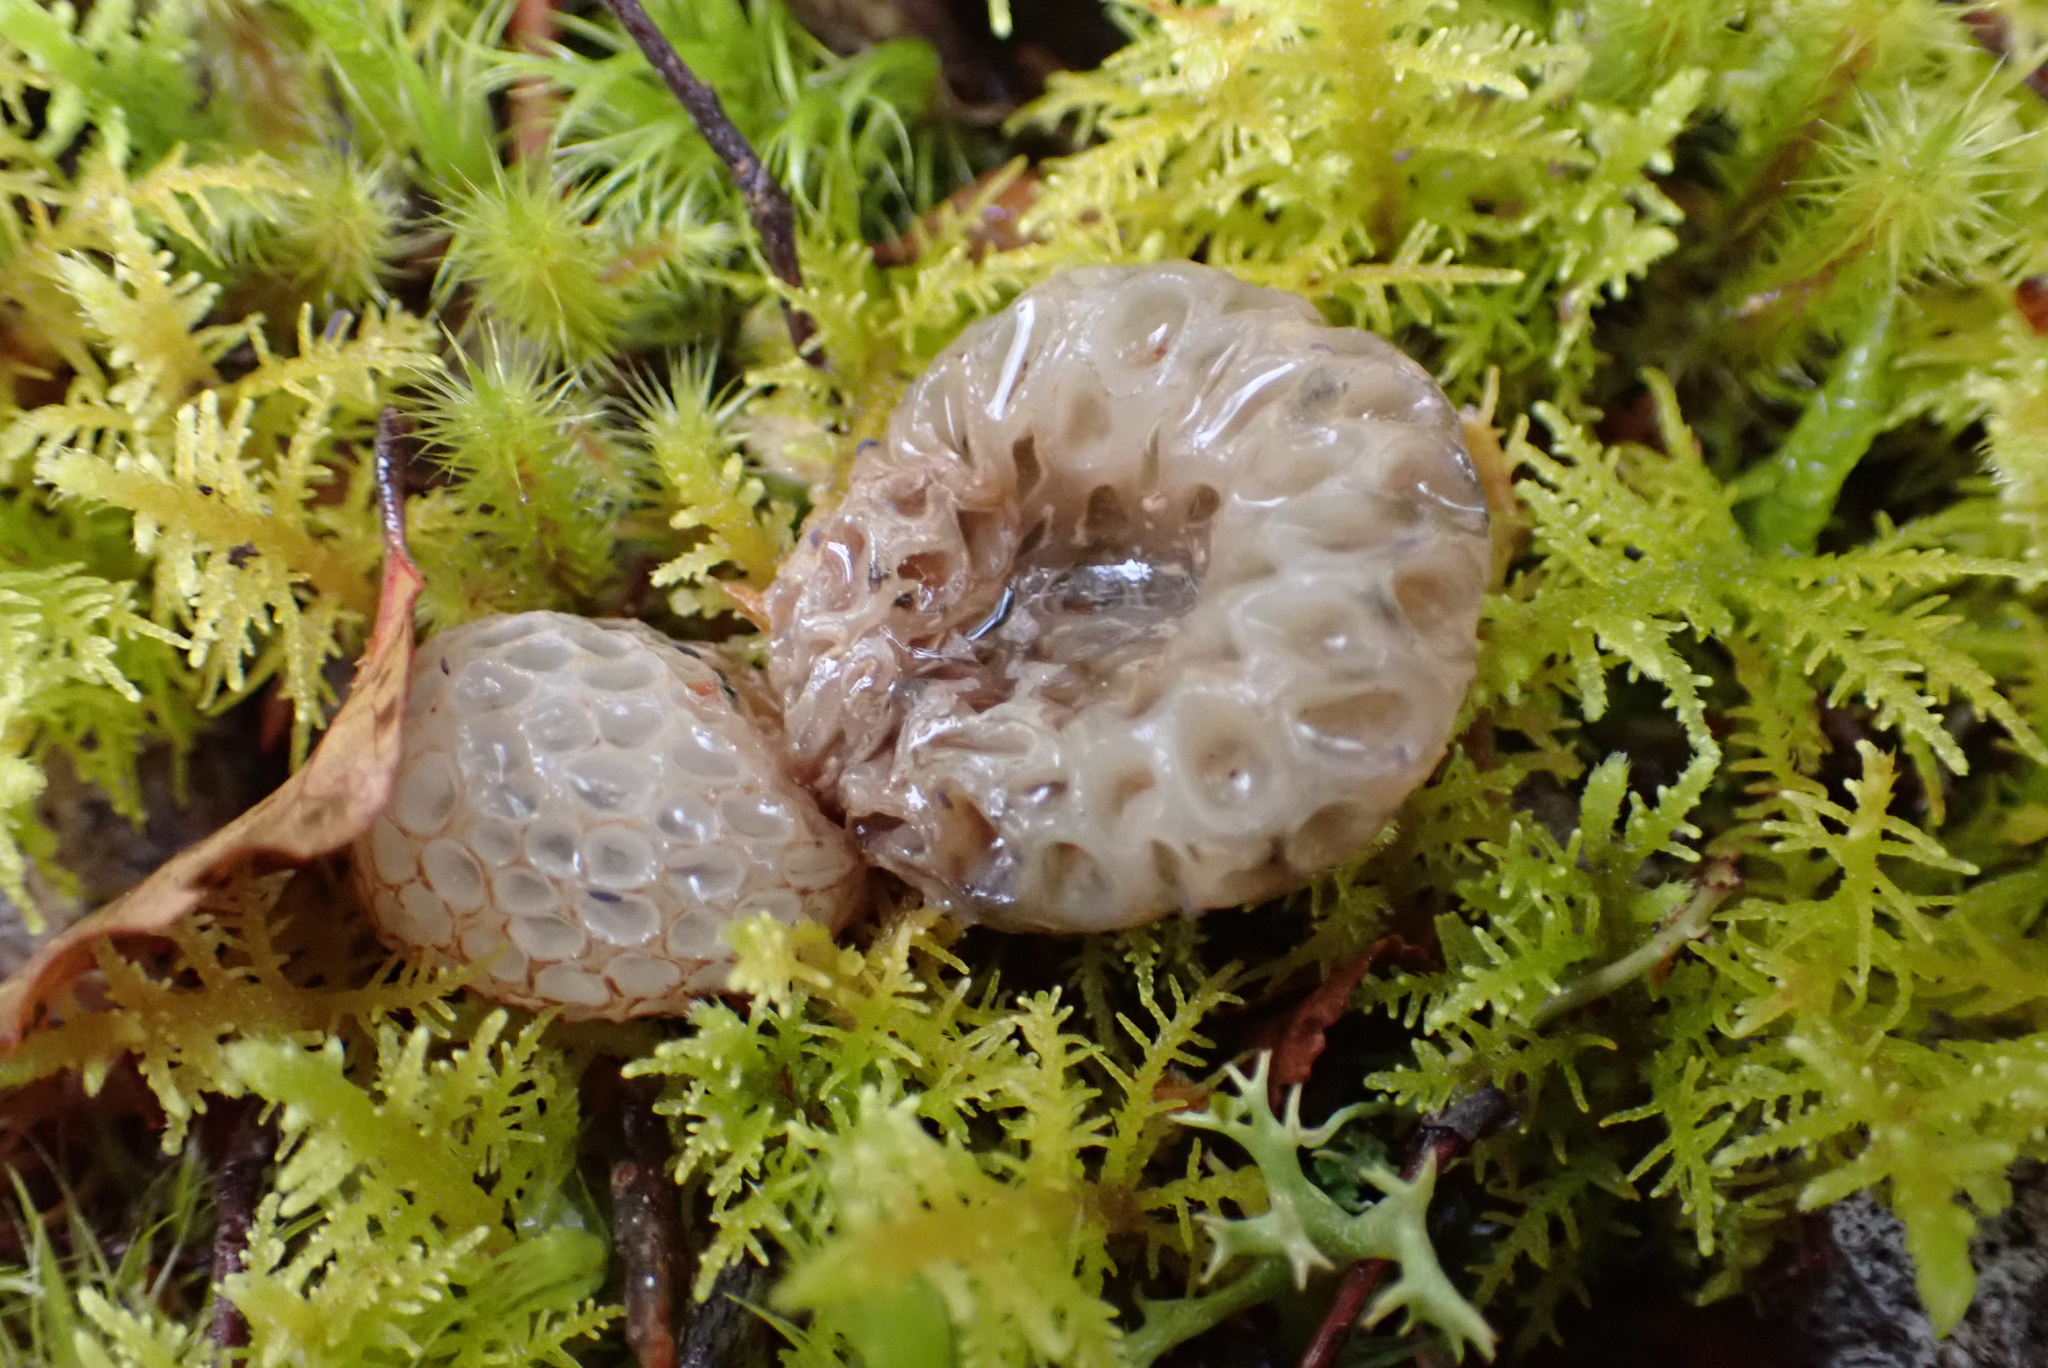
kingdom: Fungi
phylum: Ascomycota
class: Leotiomycetes
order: Cyttariales
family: Cyttariaceae
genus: Cyttaria
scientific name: Cyttaria gunnii
